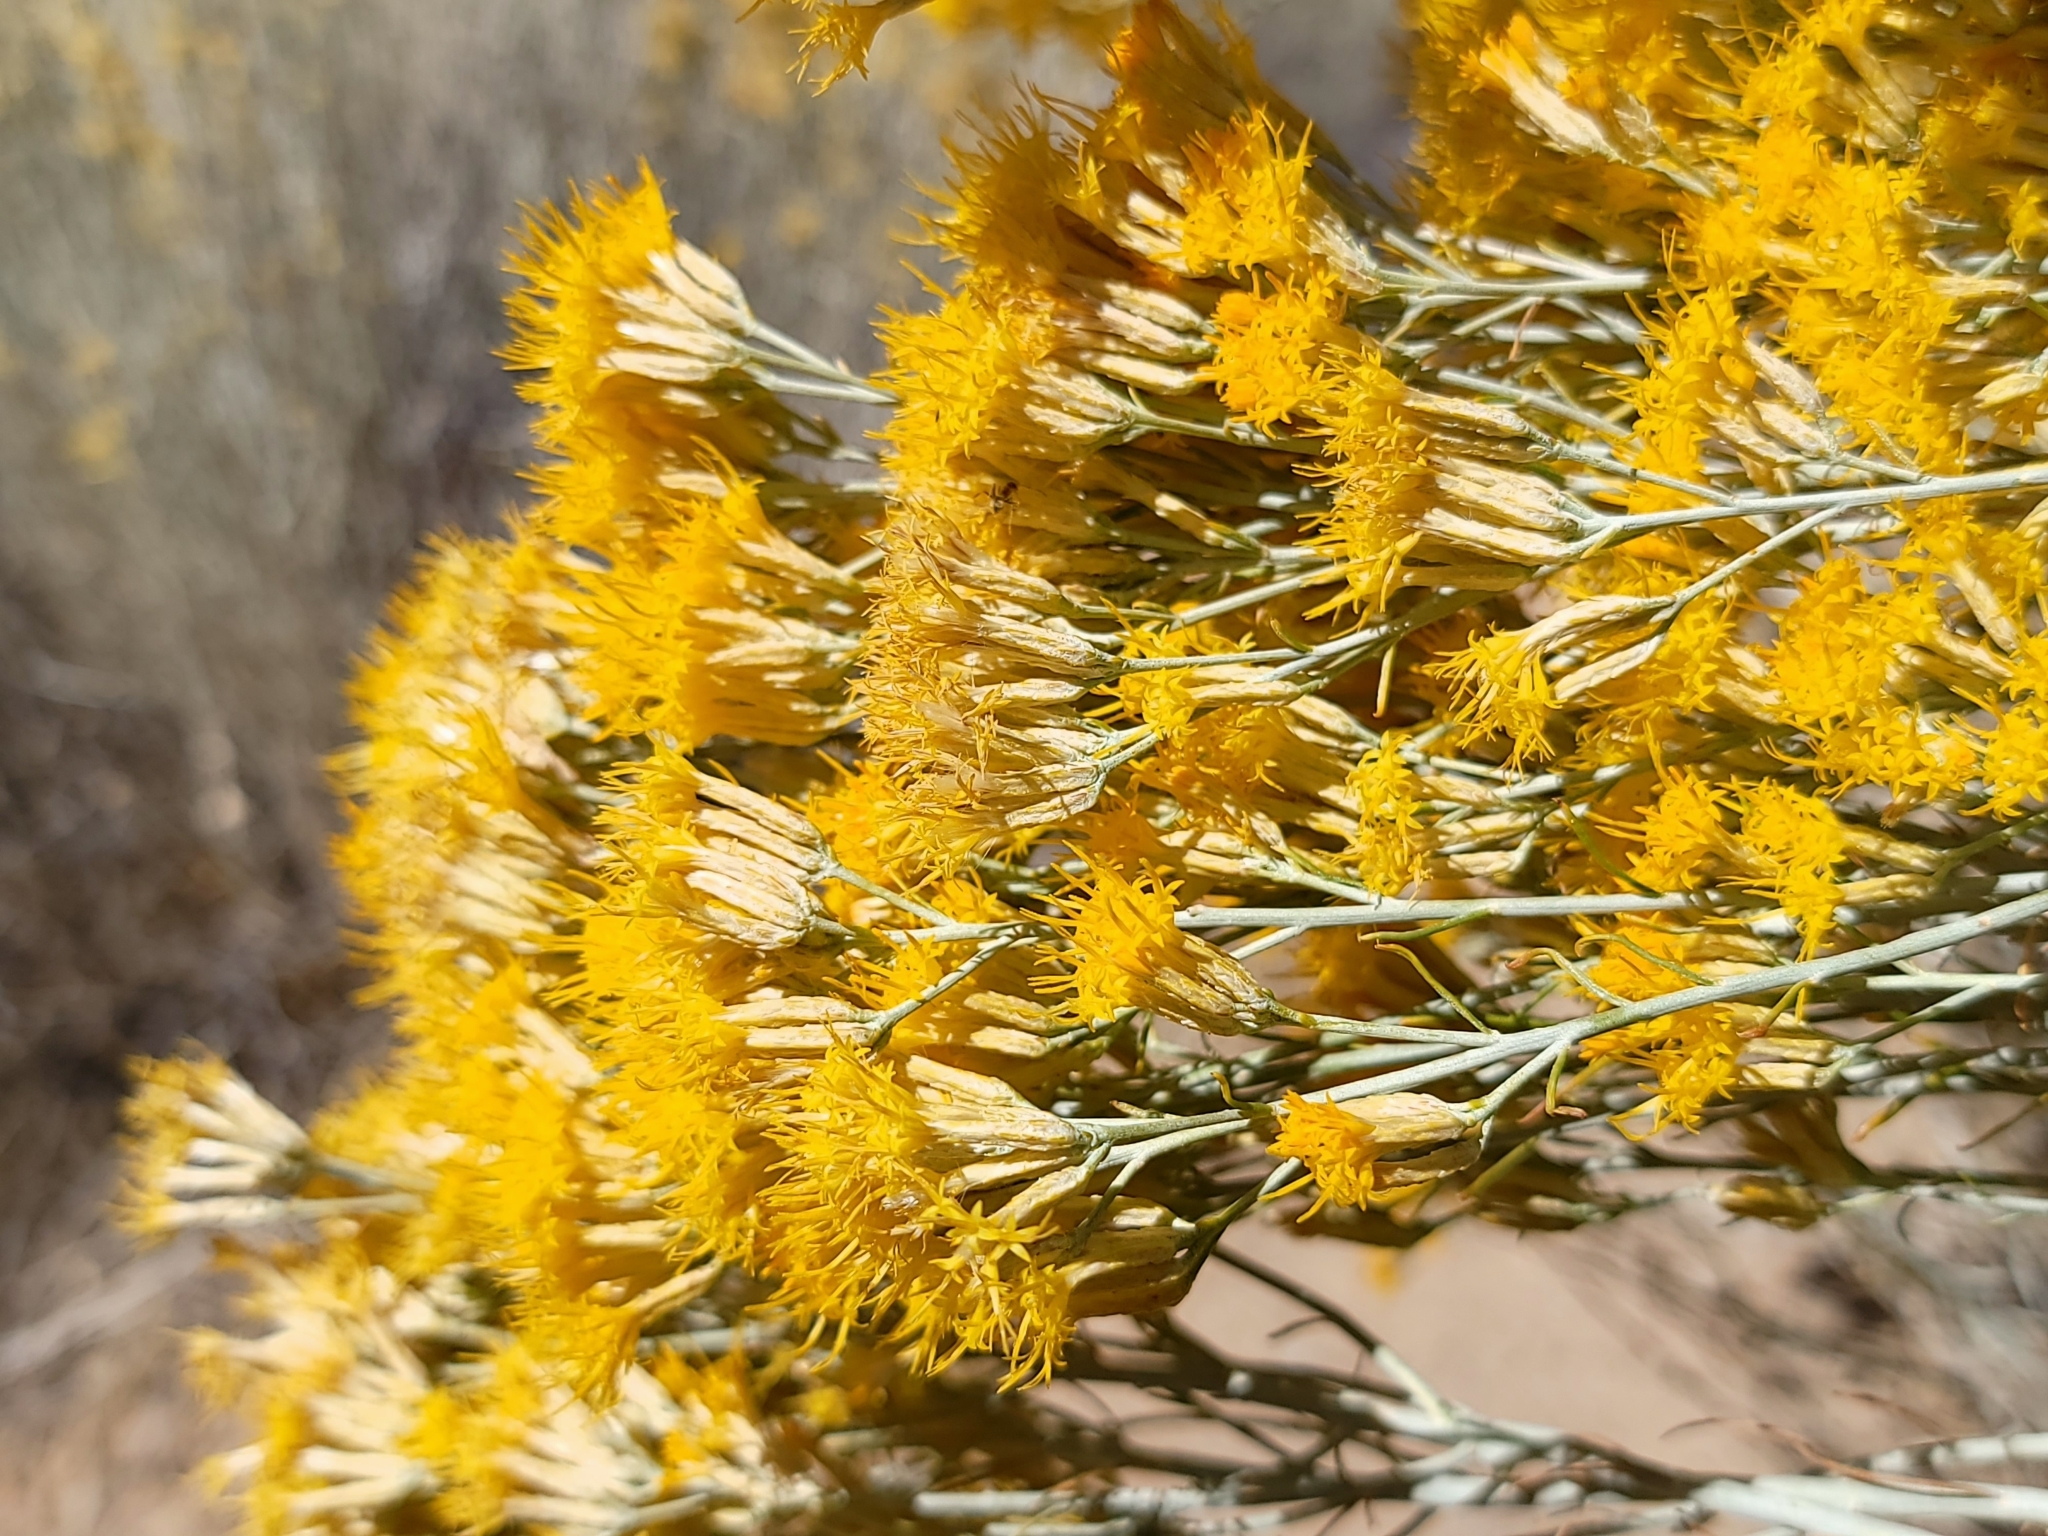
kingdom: Plantae
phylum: Tracheophyta
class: Magnoliopsida
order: Asterales
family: Asteraceae
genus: Ericameria
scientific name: Ericameria nauseosa
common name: Rubber rabbitbrush
